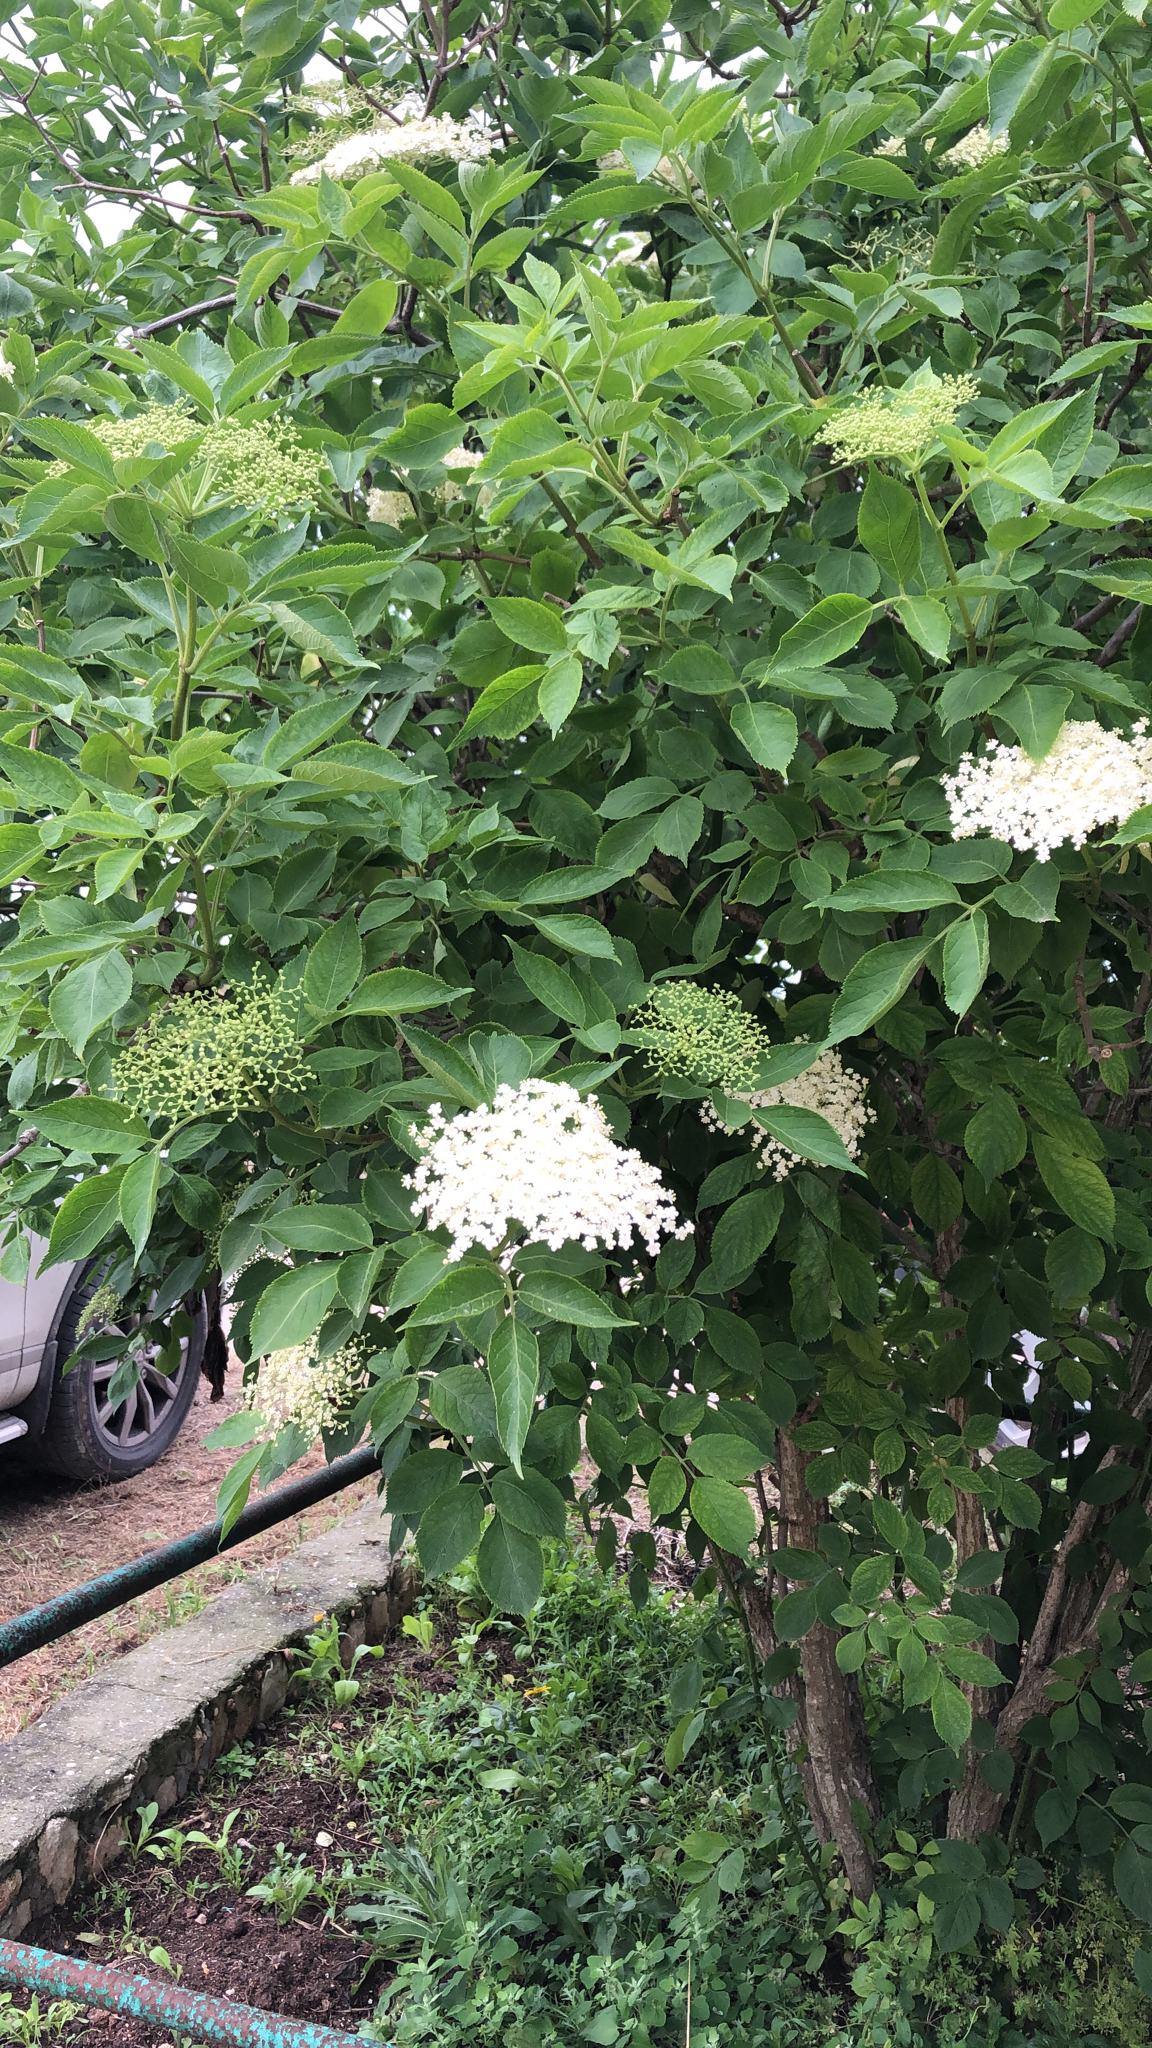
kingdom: Plantae
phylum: Tracheophyta
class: Magnoliopsida
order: Dipsacales
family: Viburnaceae
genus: Sambucus
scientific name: Sambucus nigra
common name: Elder
